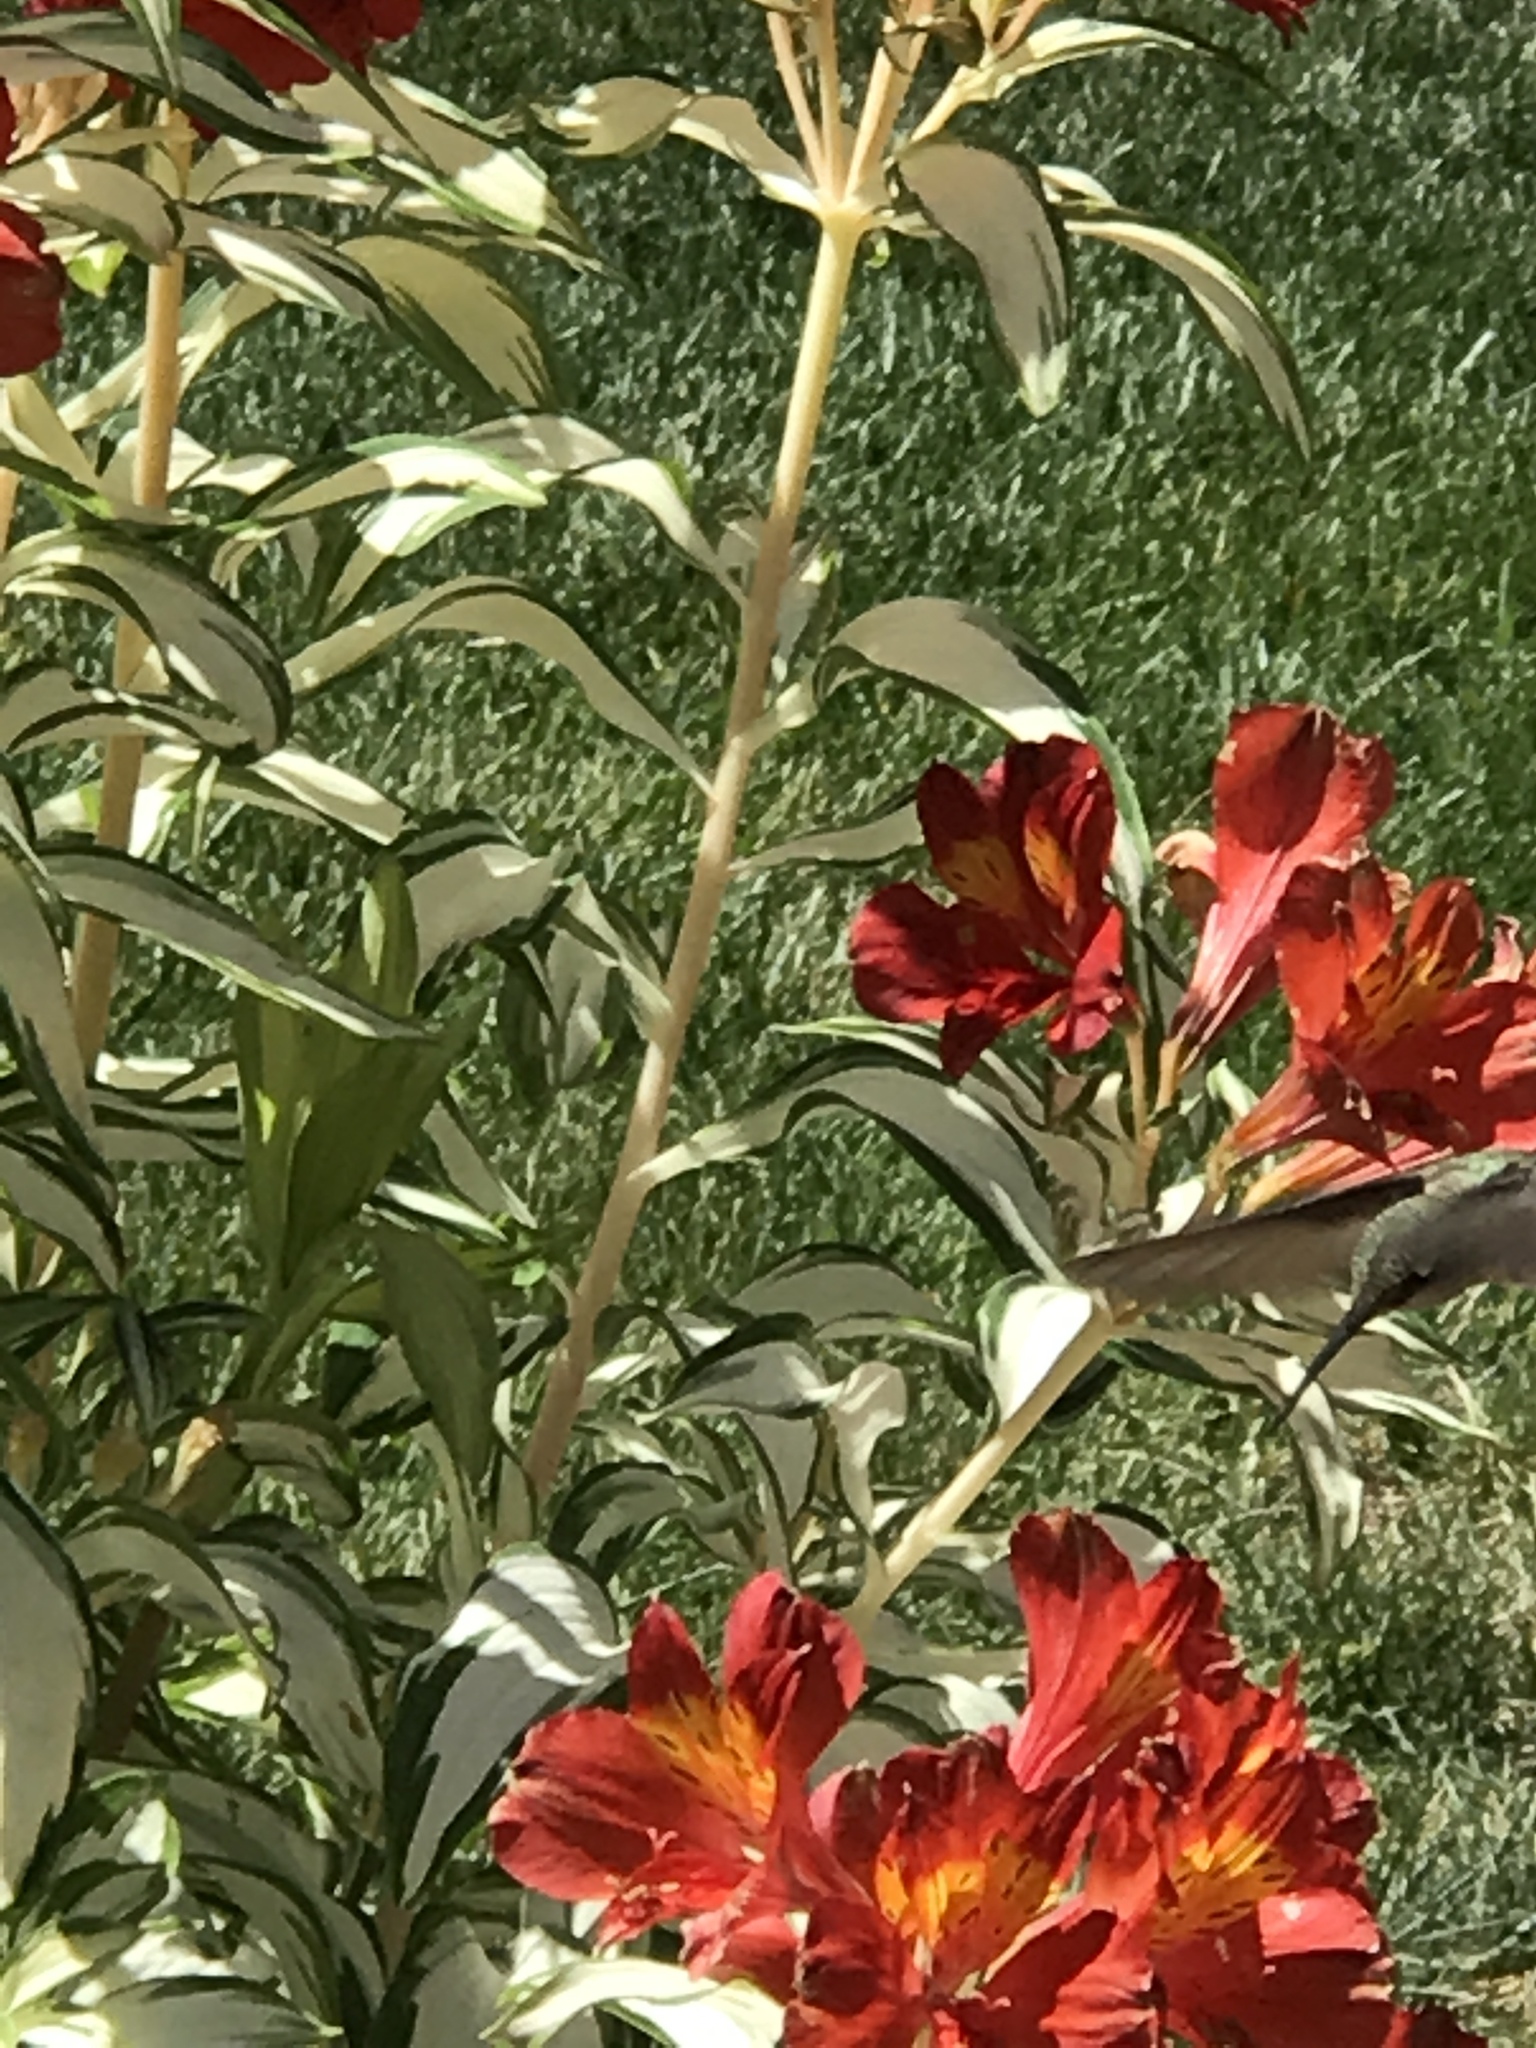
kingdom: Animalia
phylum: Chordata
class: Aves
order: Apodiformes
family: Trochilidae
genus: Calypte
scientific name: Calypte anna
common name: Anna's hummingbird
